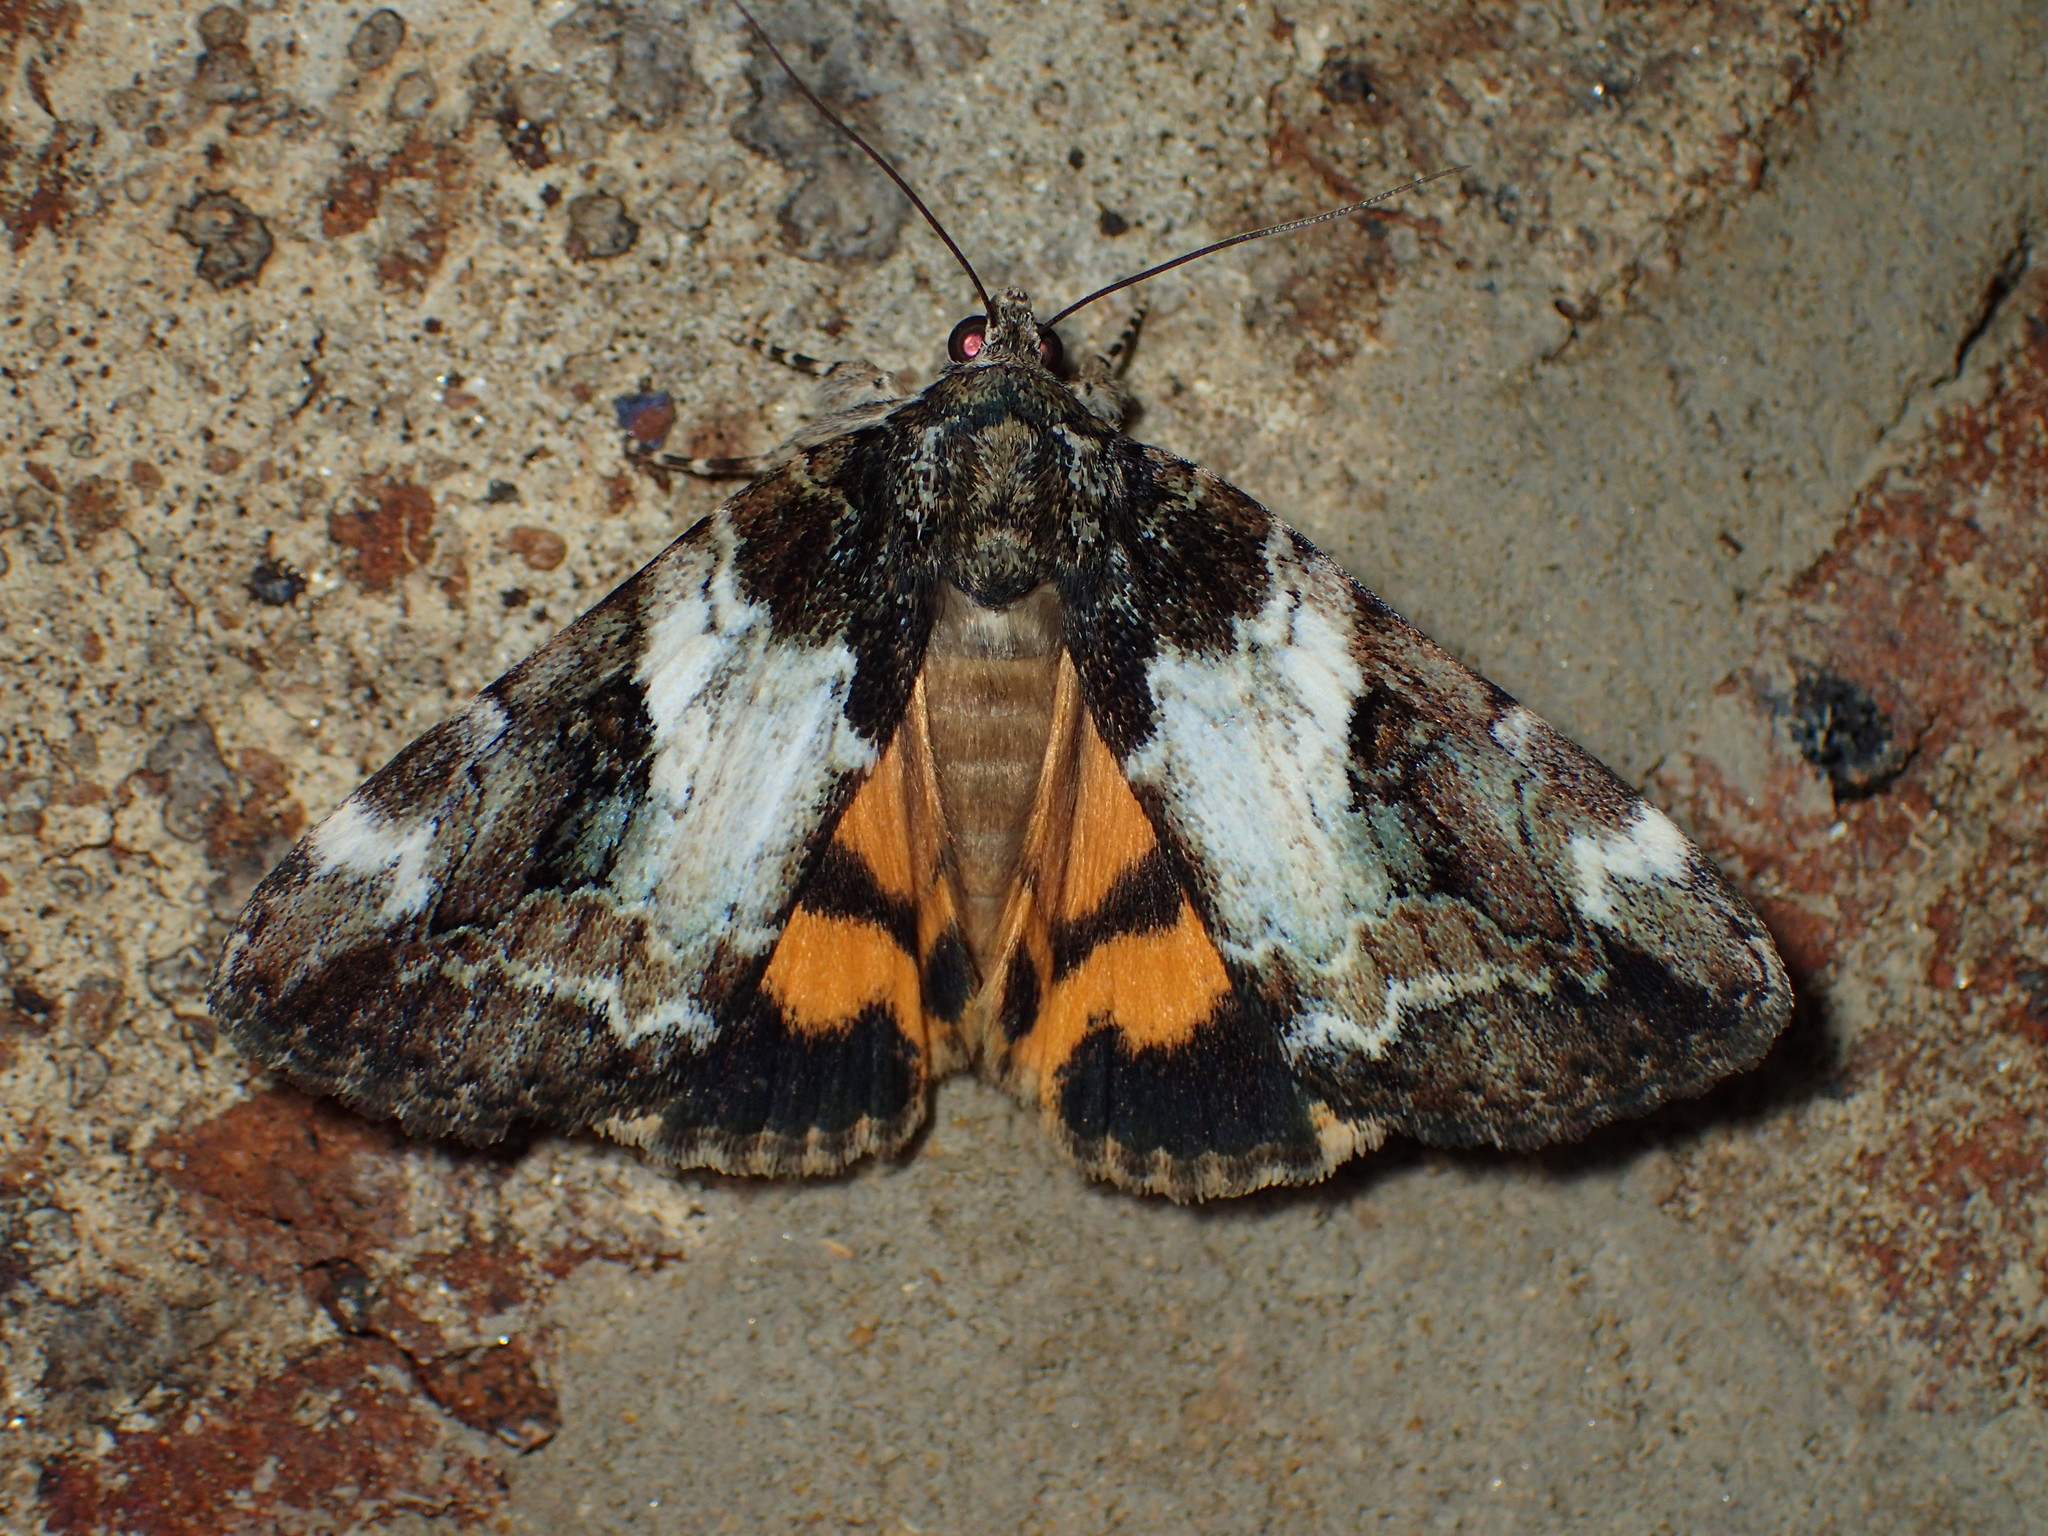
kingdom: Animalia
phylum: Arthropoda
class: Insecta
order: Lepidoptera
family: Erebidae
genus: Catocala
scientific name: Catocala micronympha
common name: Little nymph underwing
